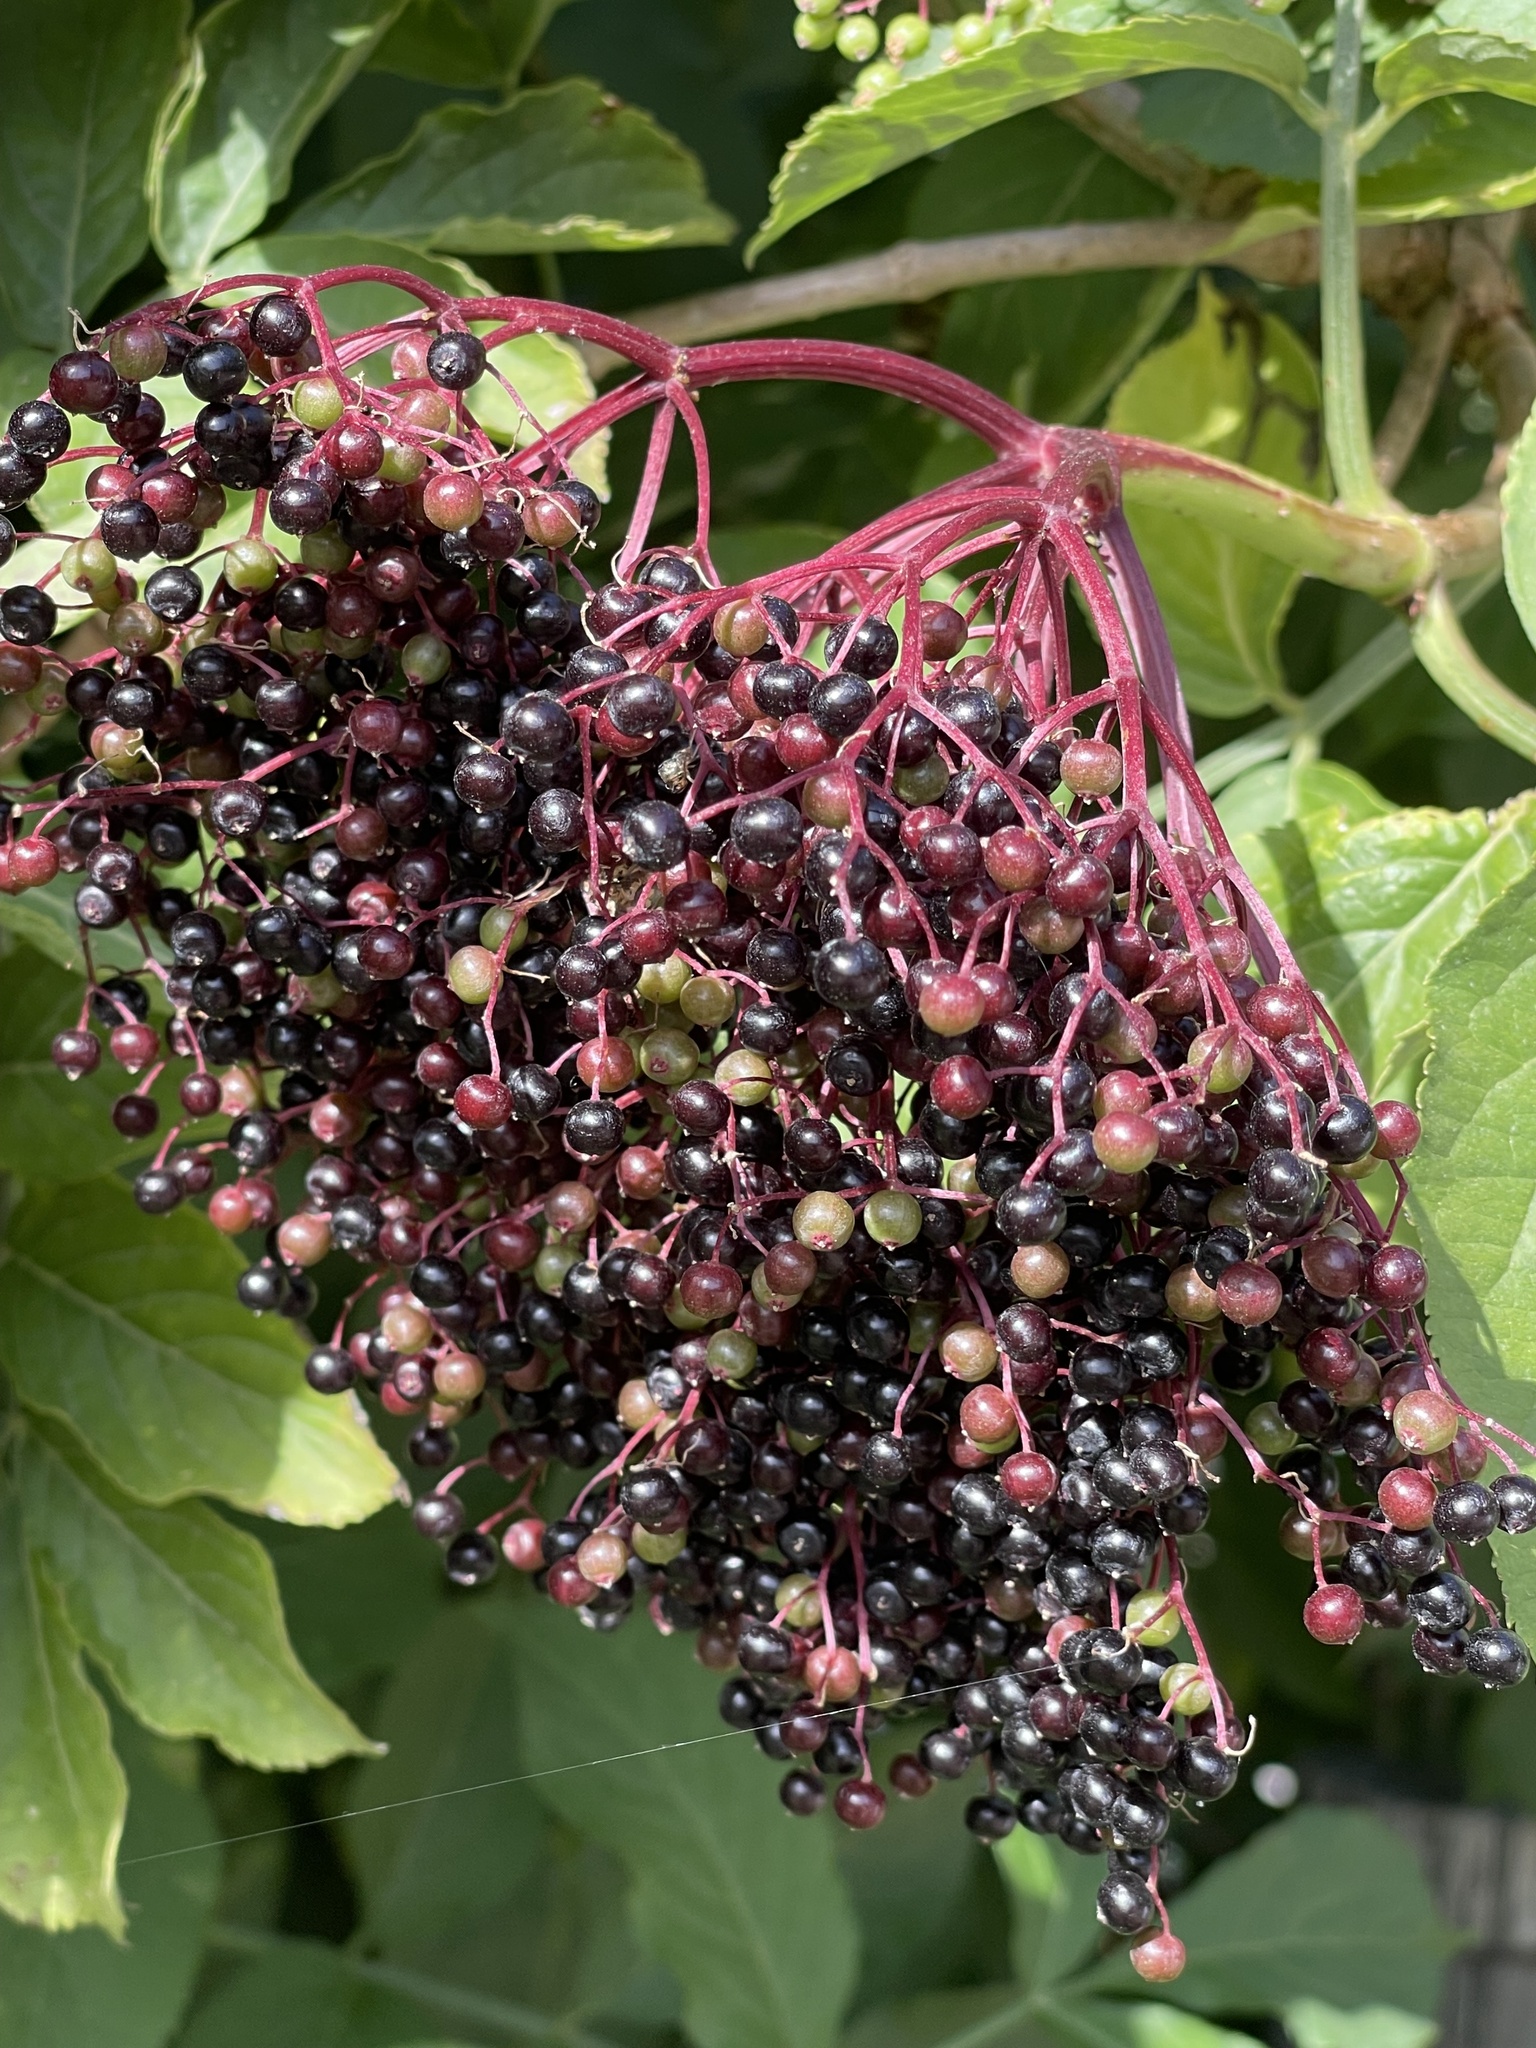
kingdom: Plantae
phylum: Tracheophyta
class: Magnoliopsida
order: Dipsacales
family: Viburnaceae
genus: Sambucus
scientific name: Sambucus nigra
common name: Elder
